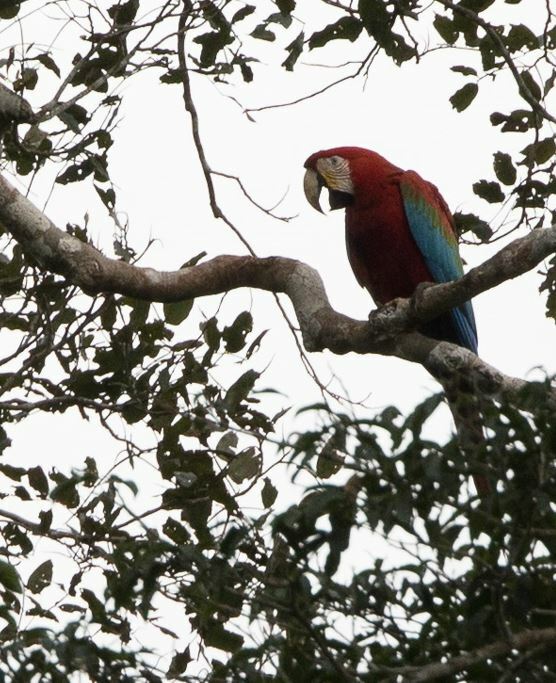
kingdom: Animalia
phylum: Chordata
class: Aves
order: Psittaciformes
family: Psittacidae
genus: Ara
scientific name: Ara chloropterus
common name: Red-and-green macaw
